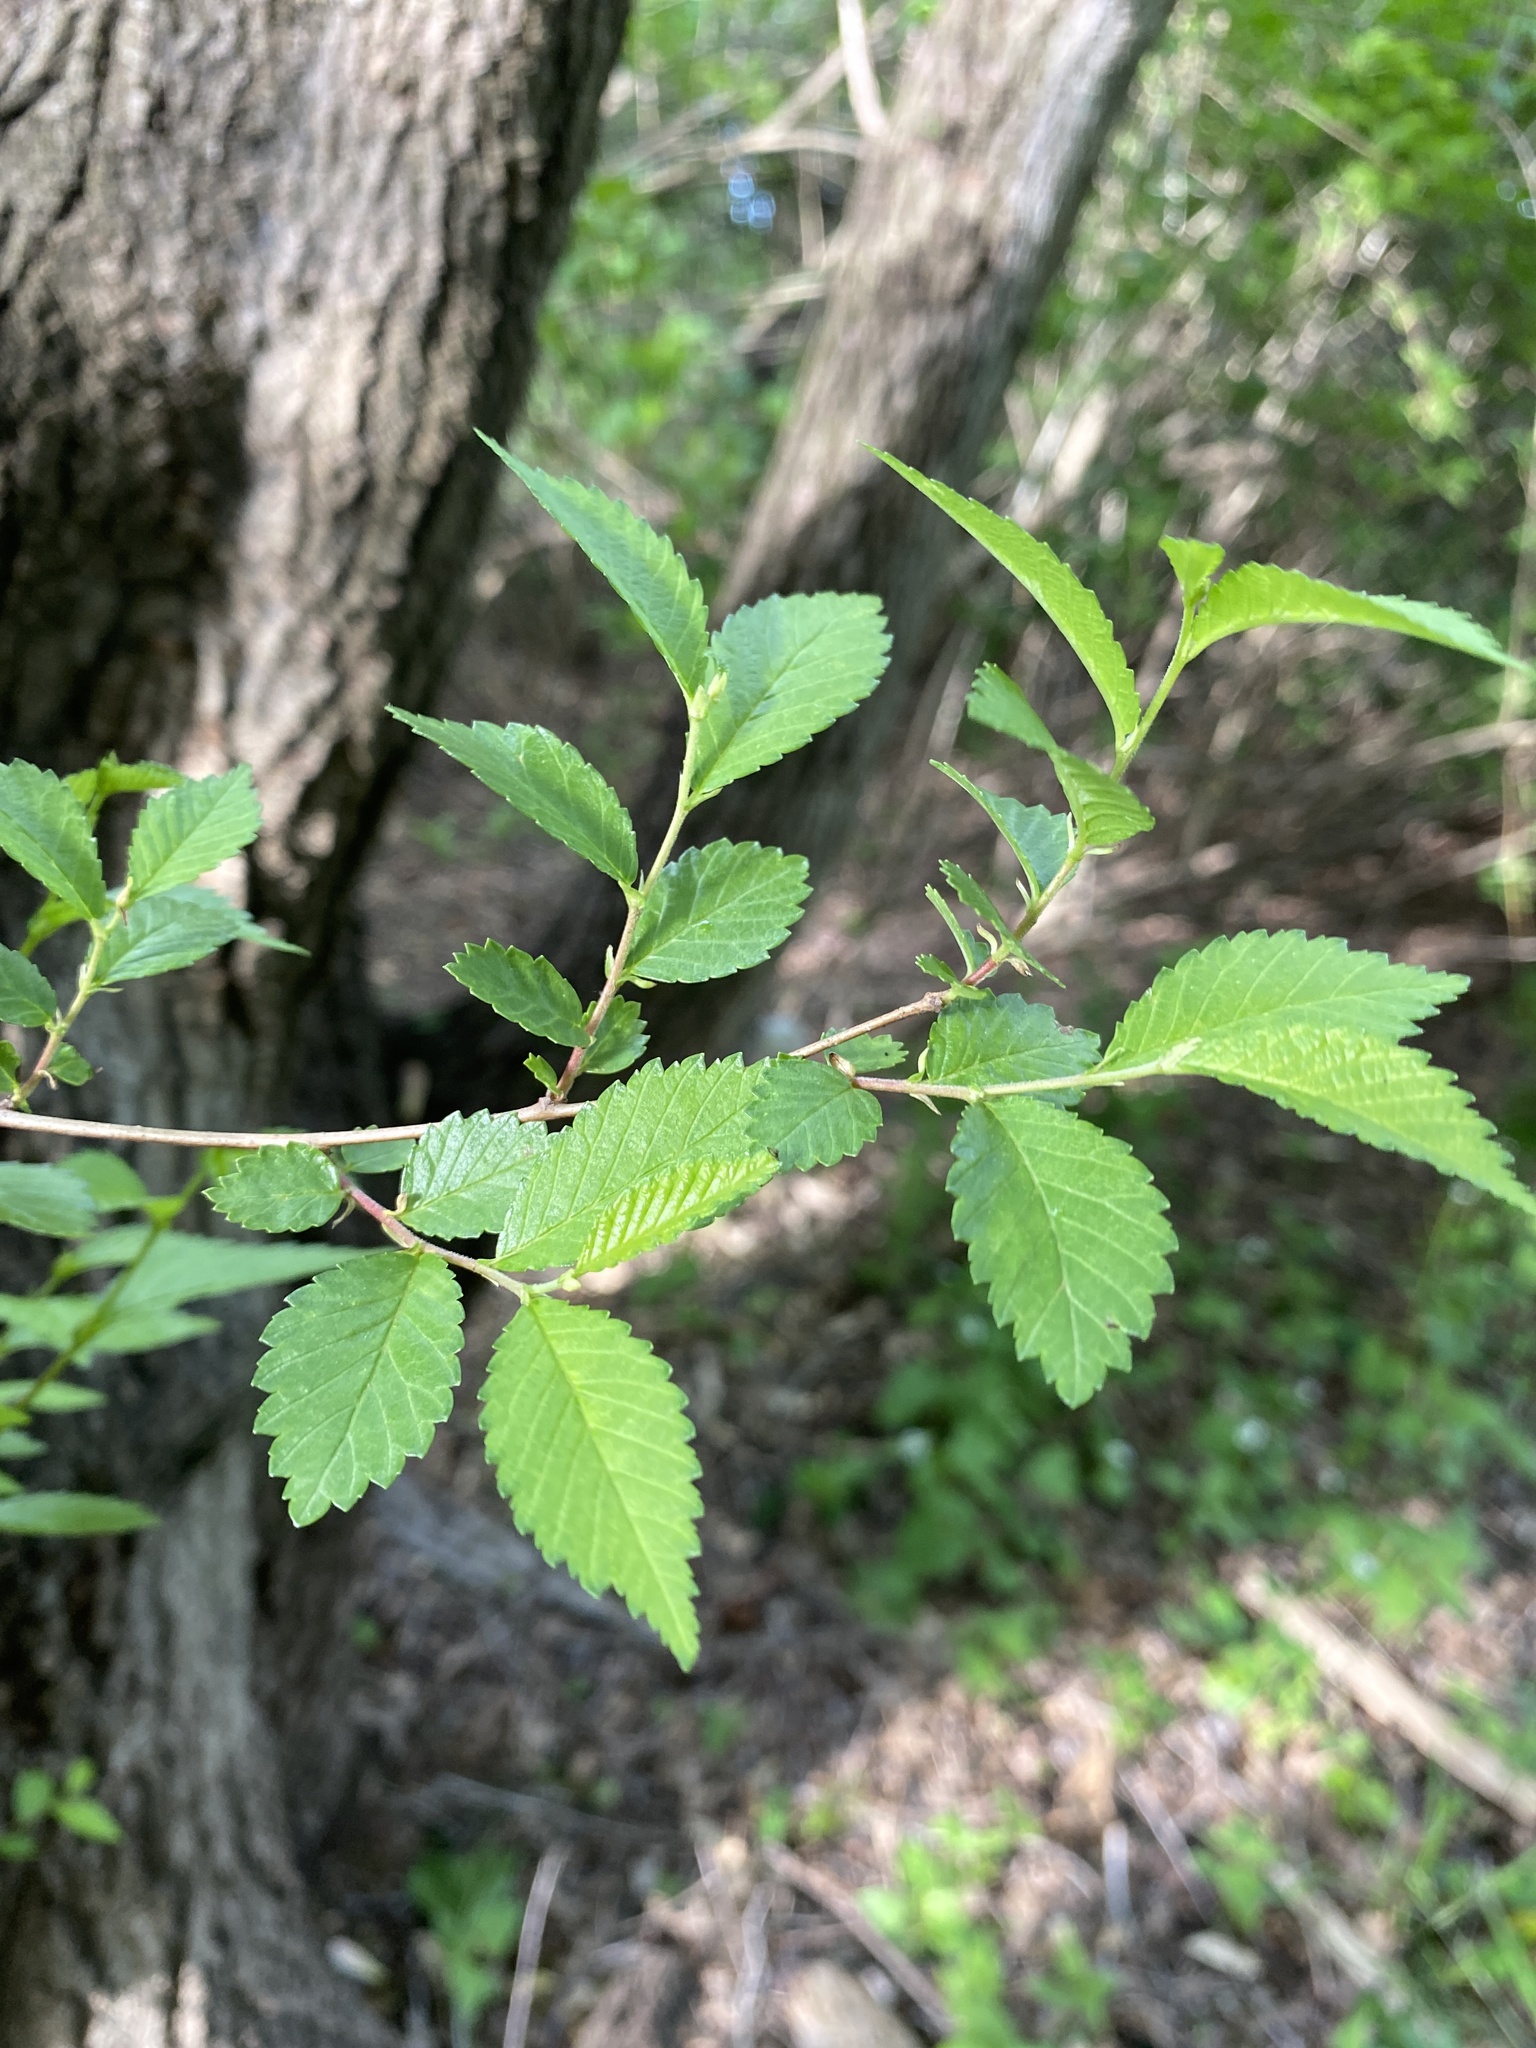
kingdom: Plantae
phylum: Tracheophyta
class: Magnoliopsida
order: Rosales
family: Ulmaceae
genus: Ulmus
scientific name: Ulmus pumila
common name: Siberian elm
